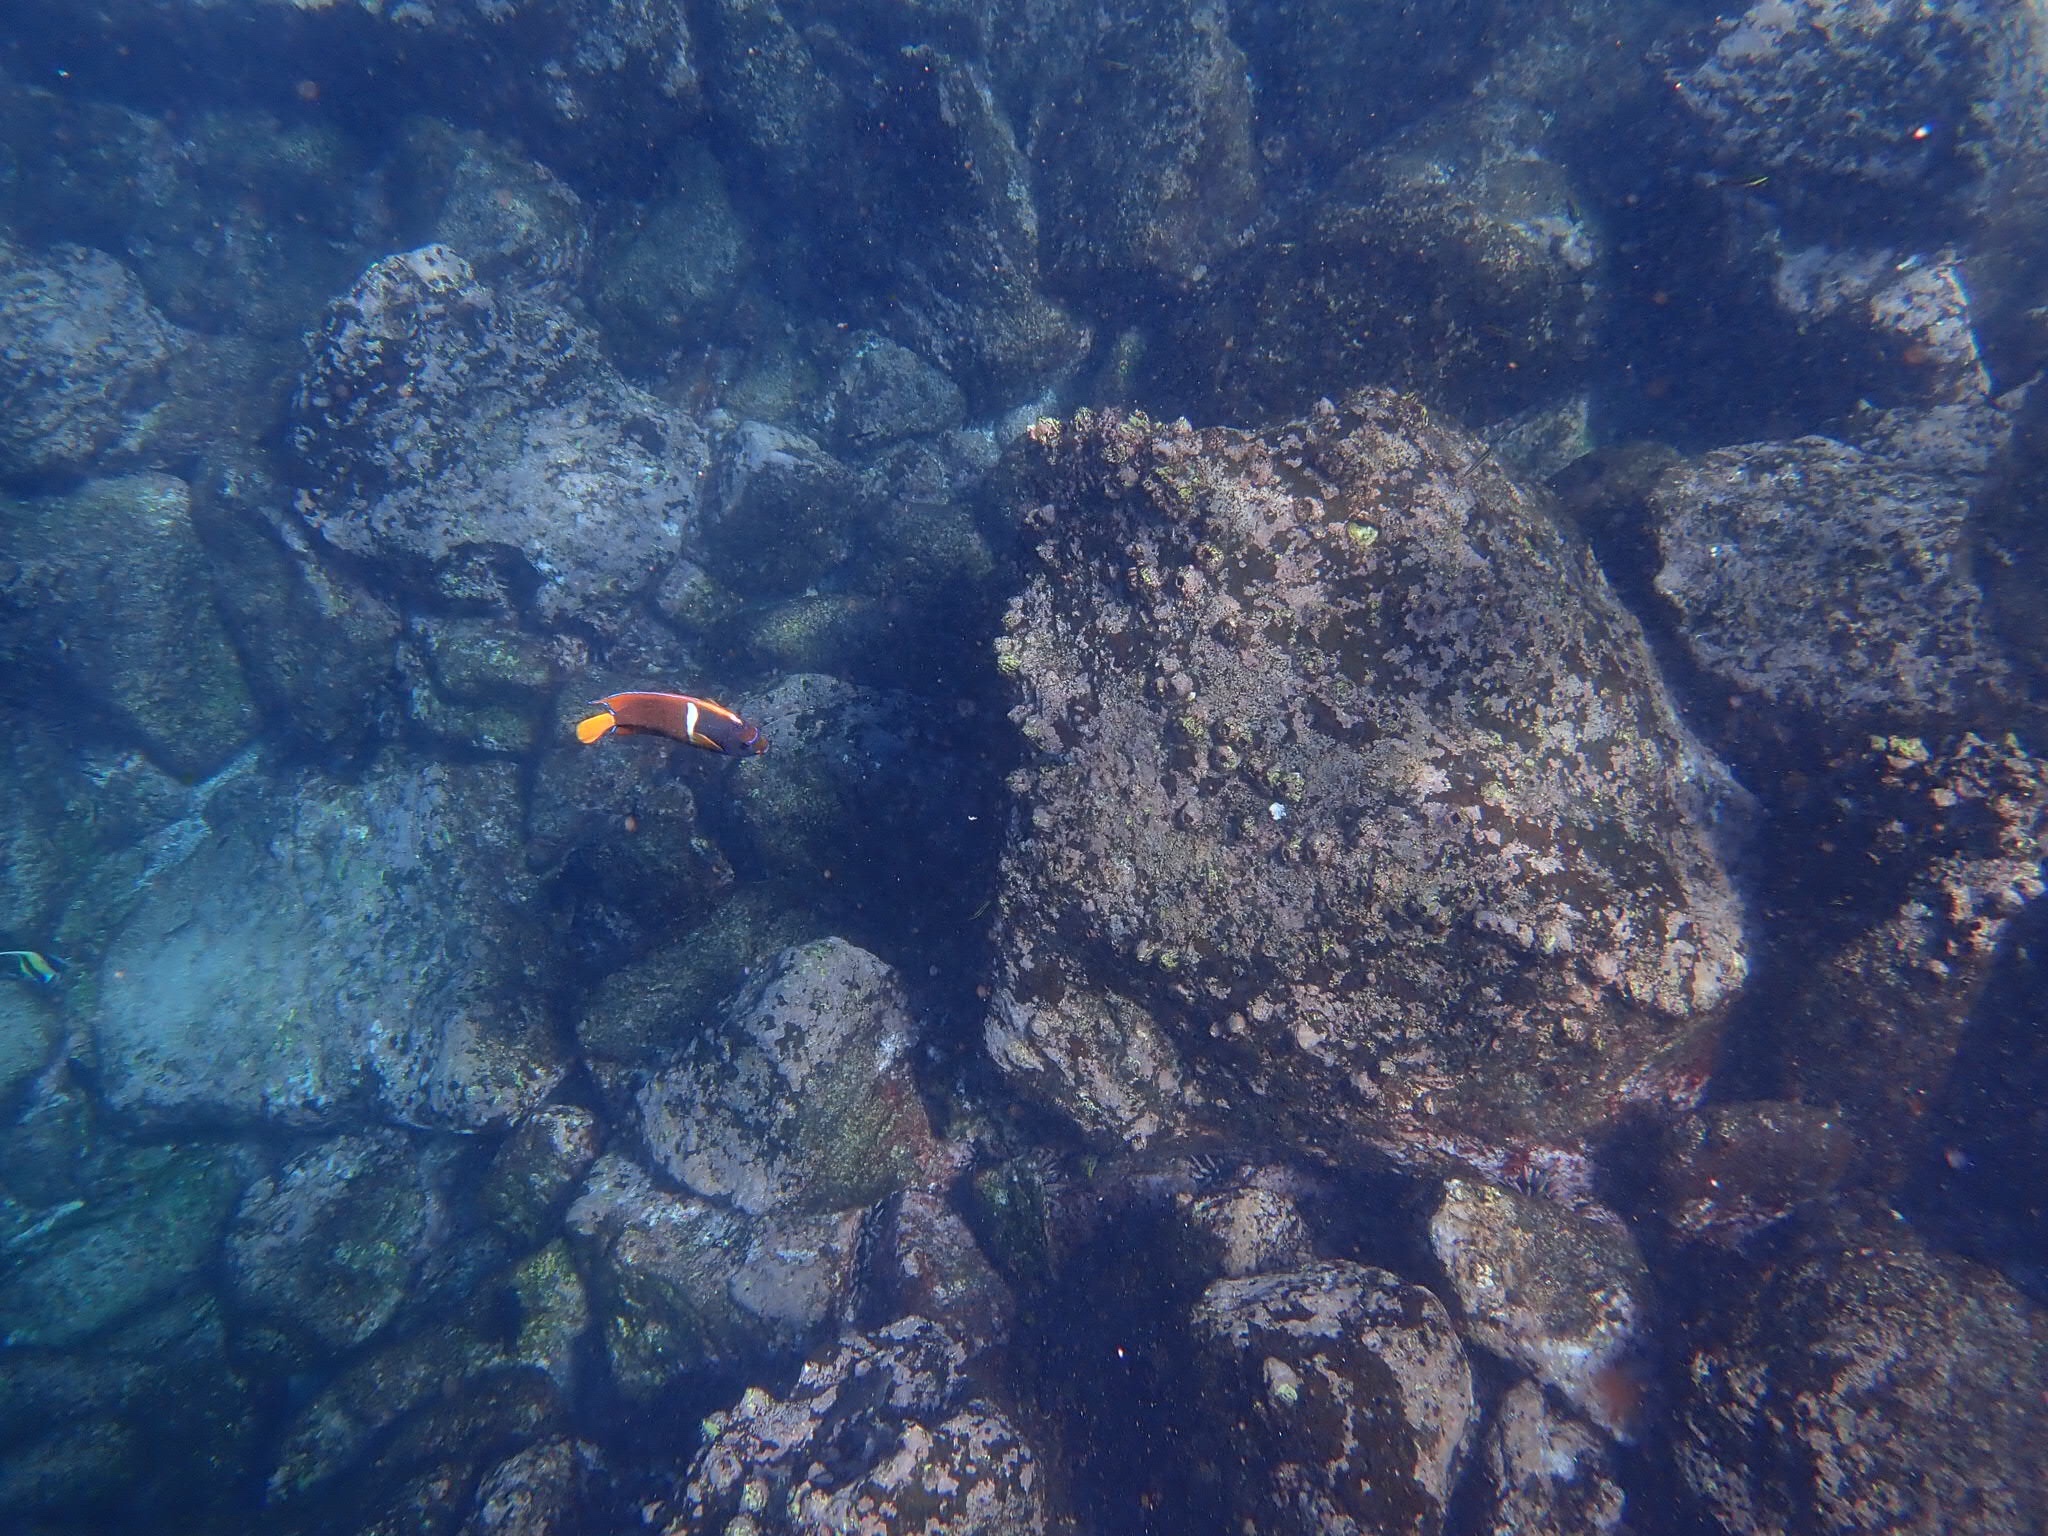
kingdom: Animalia
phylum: Chordata
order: Perciformes
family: Pomacanthidae
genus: Holacanthus
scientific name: Holacanthus passer
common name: King angelfish
